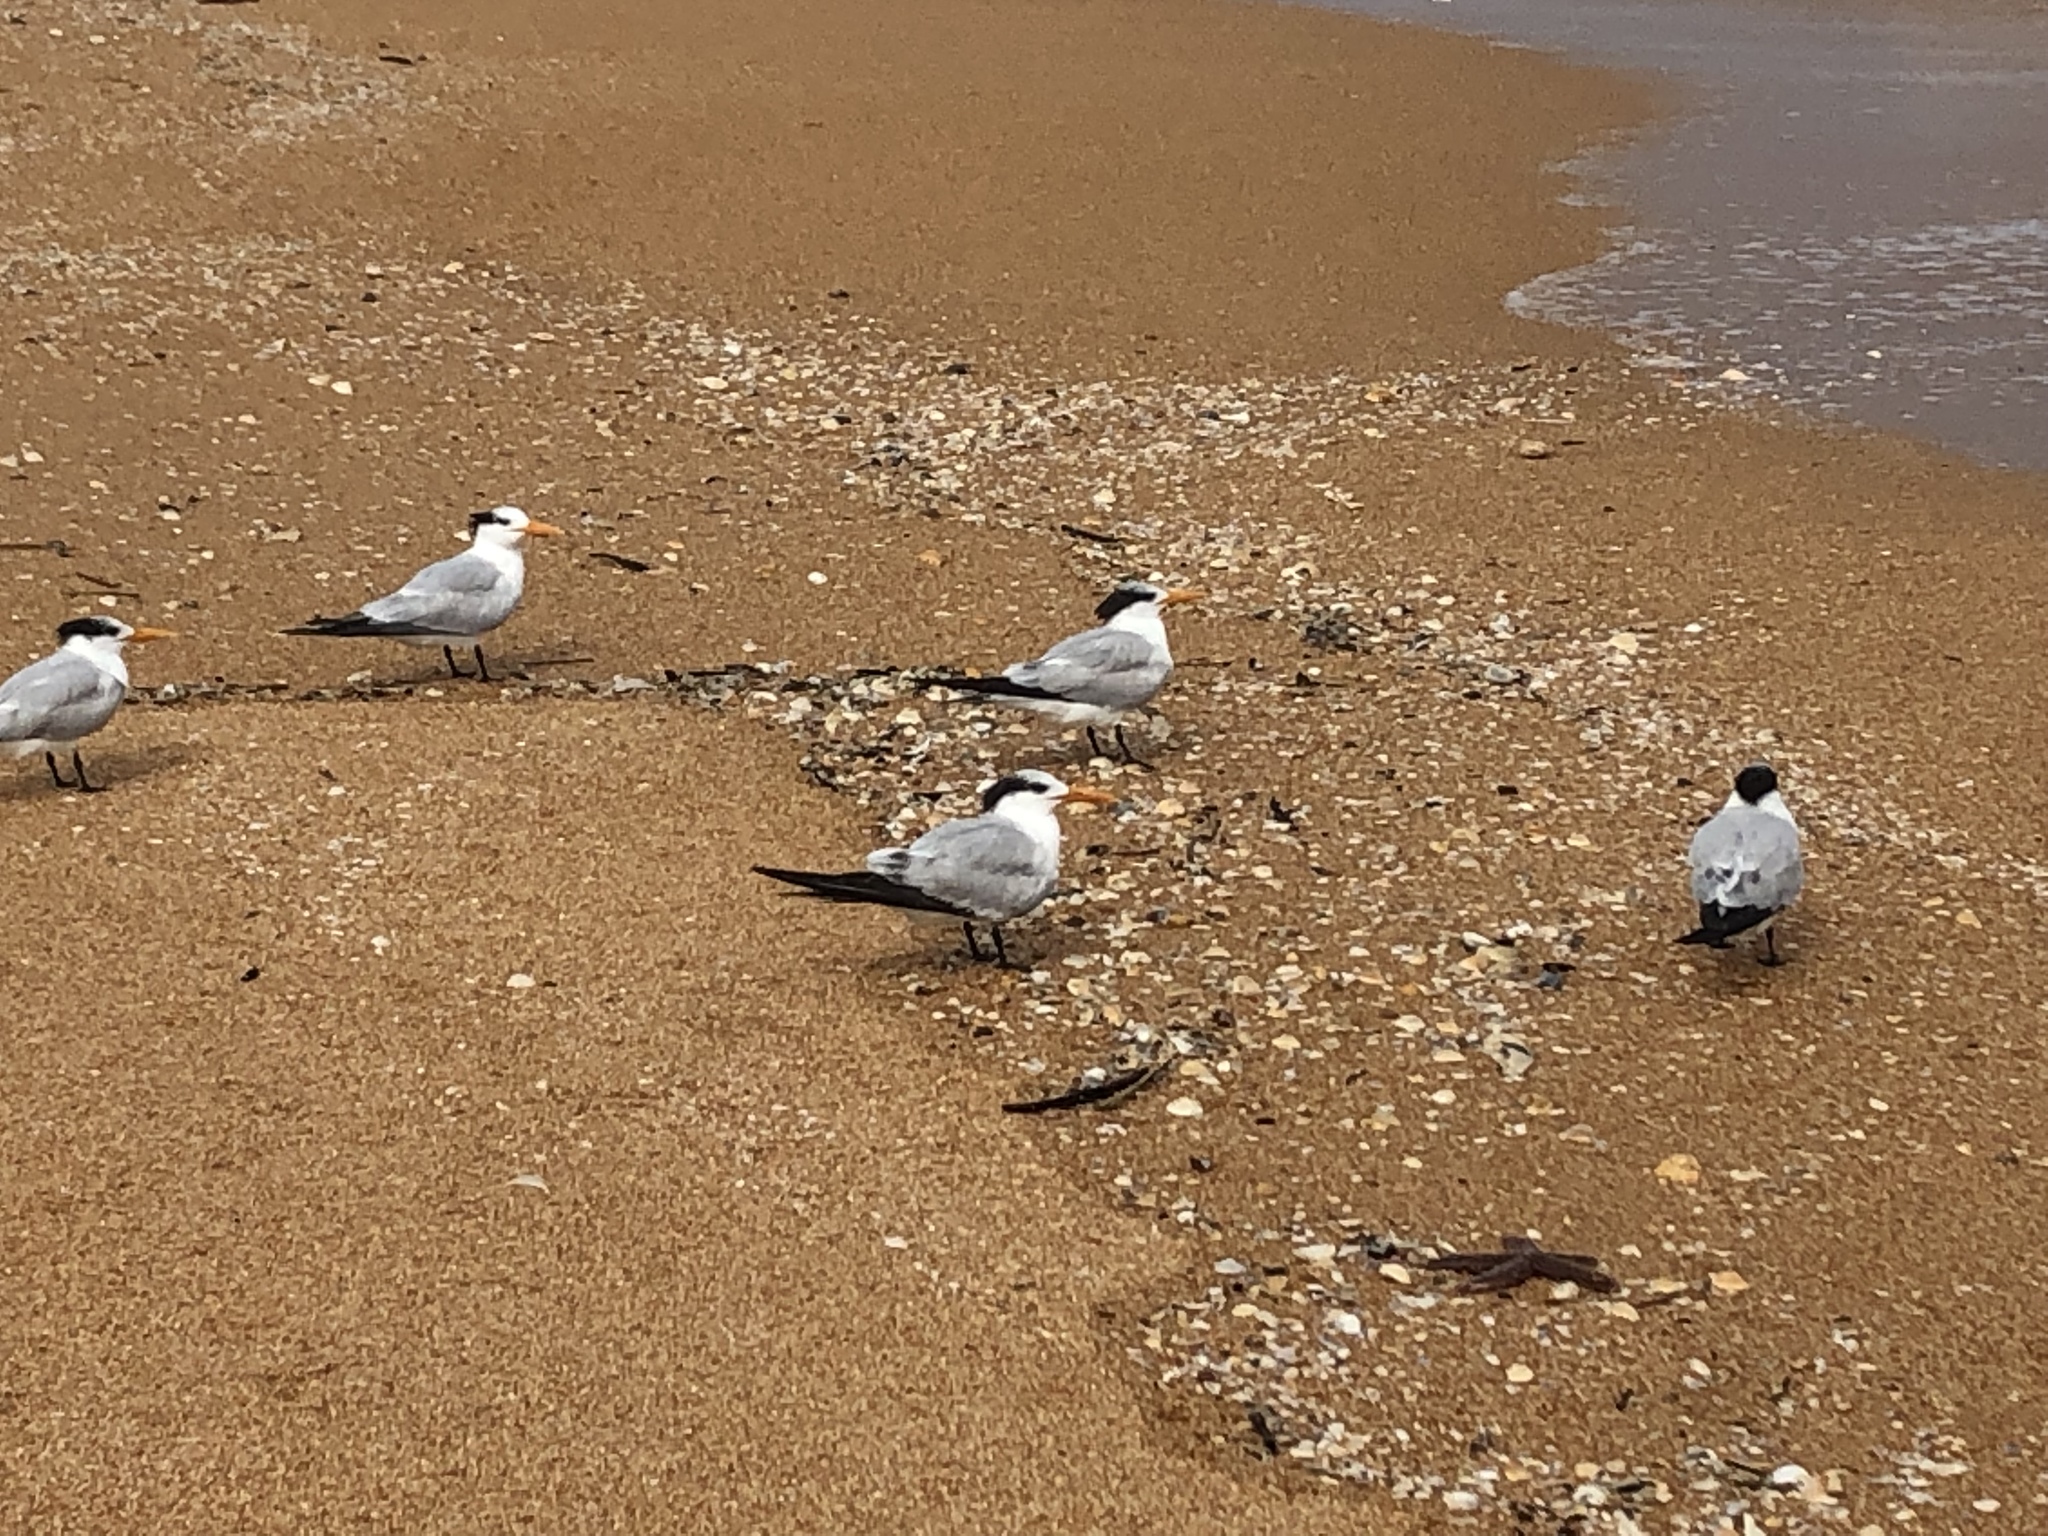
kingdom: Animalia
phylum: Chordata
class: Aves
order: Charadriiformes
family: Laridae
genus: Thalasseus
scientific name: Thalasseus maximus
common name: Royal tern
